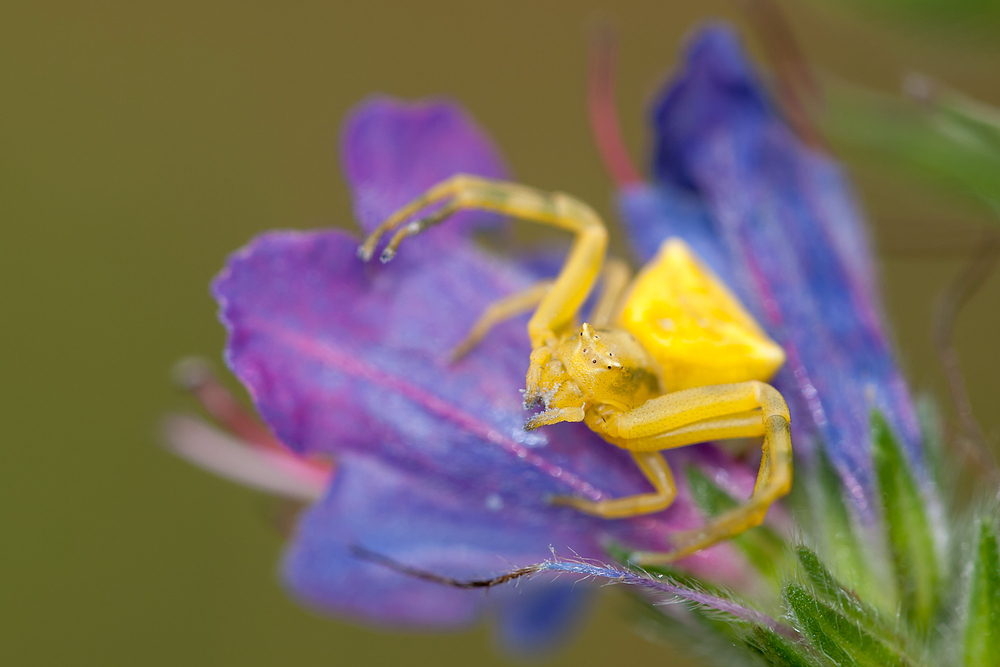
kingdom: Animalia
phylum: Arthropoda
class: Arachnida
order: Araneae
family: Thomisidae
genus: Thomisus
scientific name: Thomisus onustus
